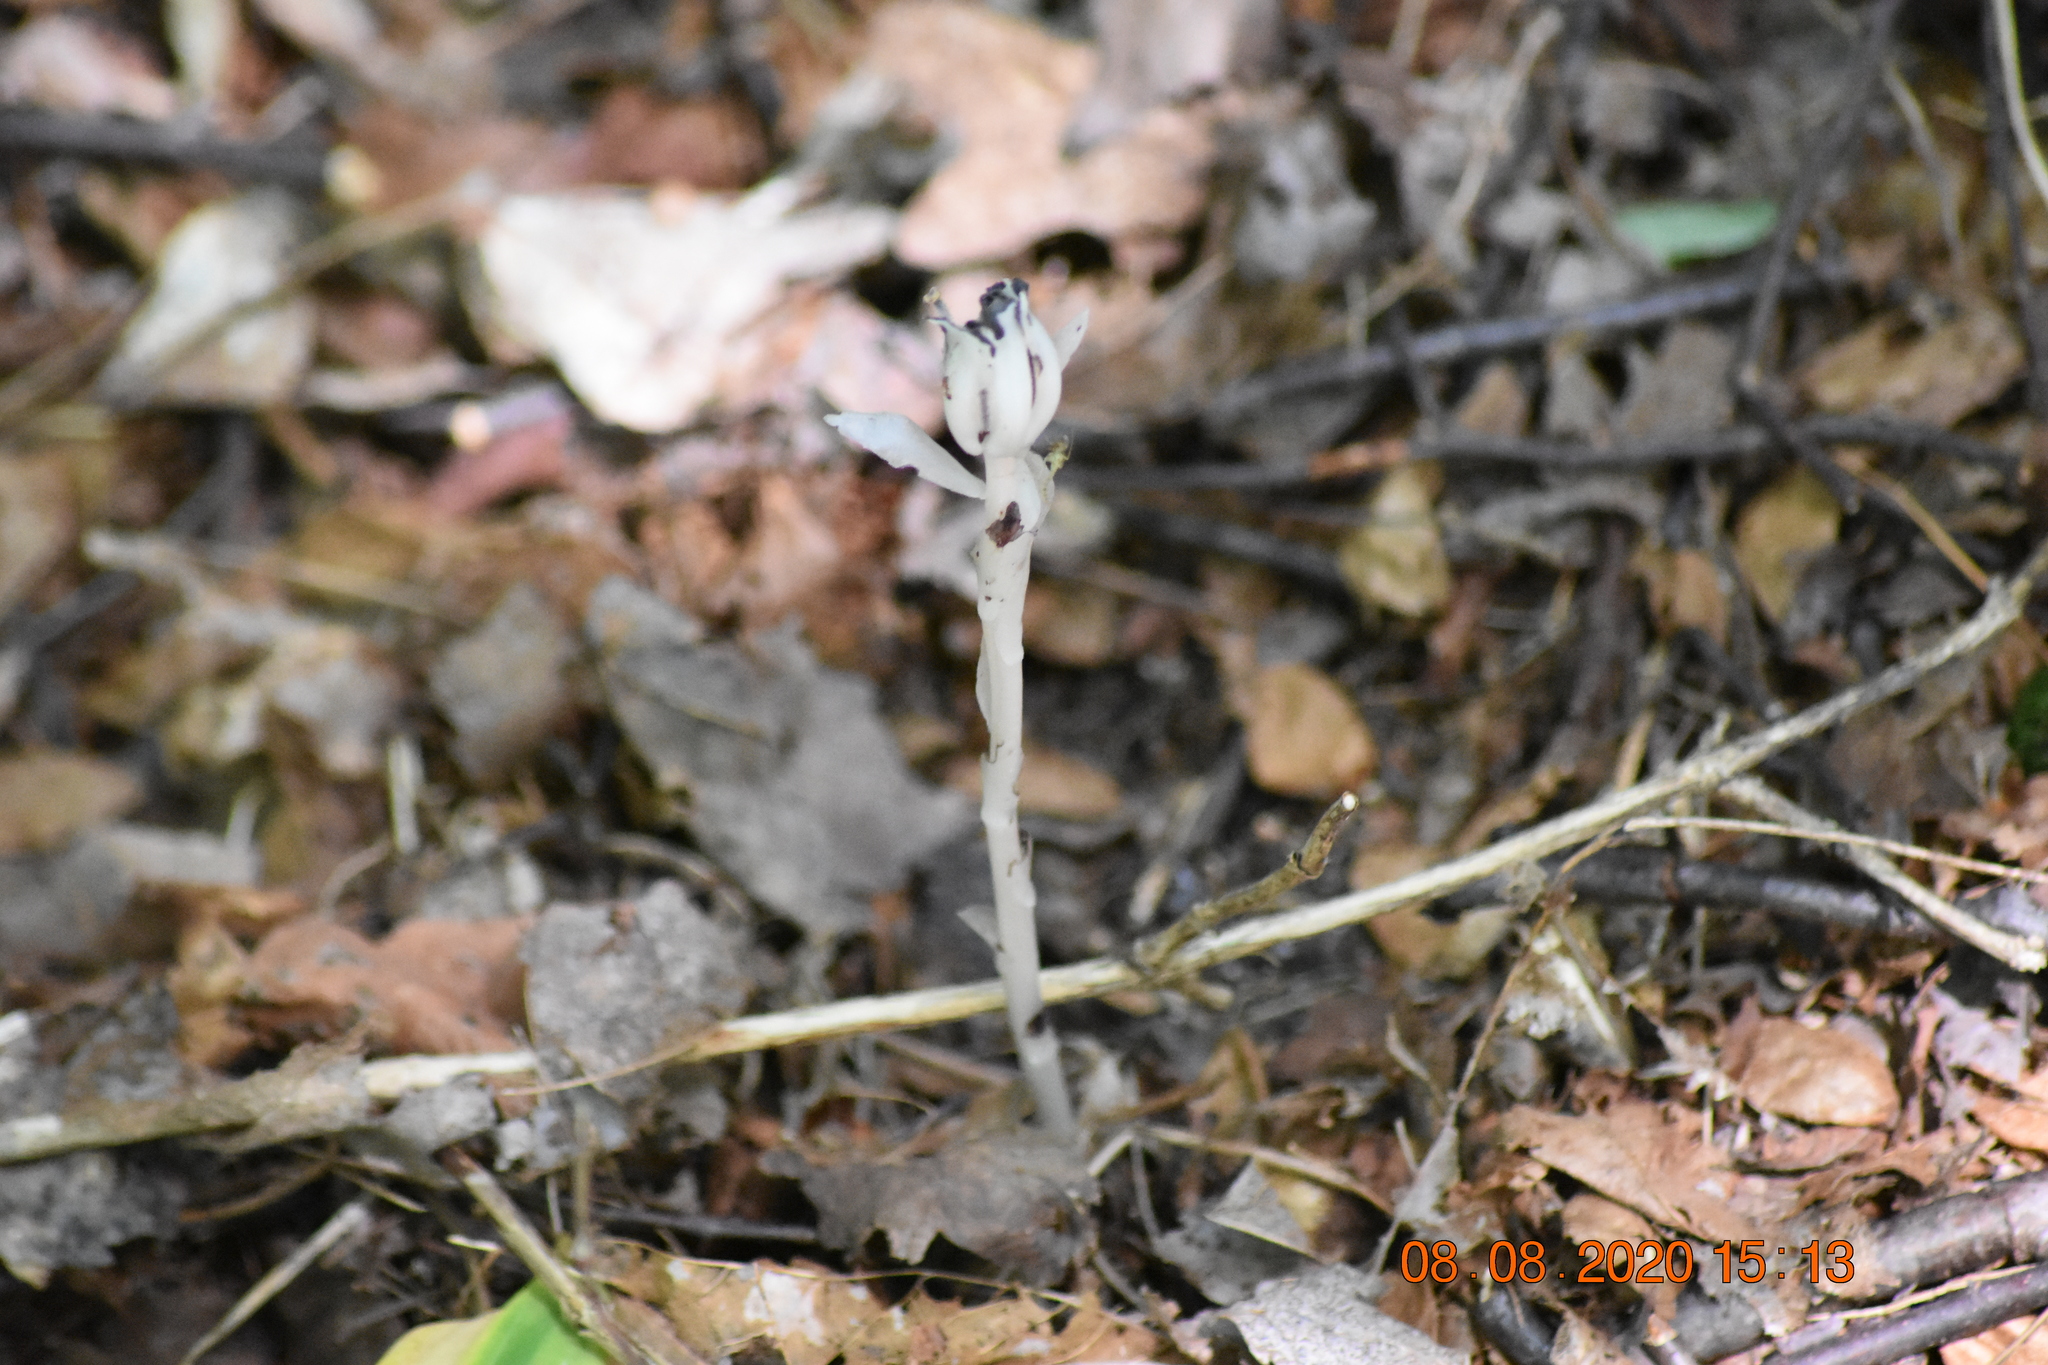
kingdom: Plantae
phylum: Tracheophyta
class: Magnoliopsida
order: Ericales
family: Ericaceae
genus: Monotropa
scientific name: Monotropa uniflora
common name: Convulsion root
